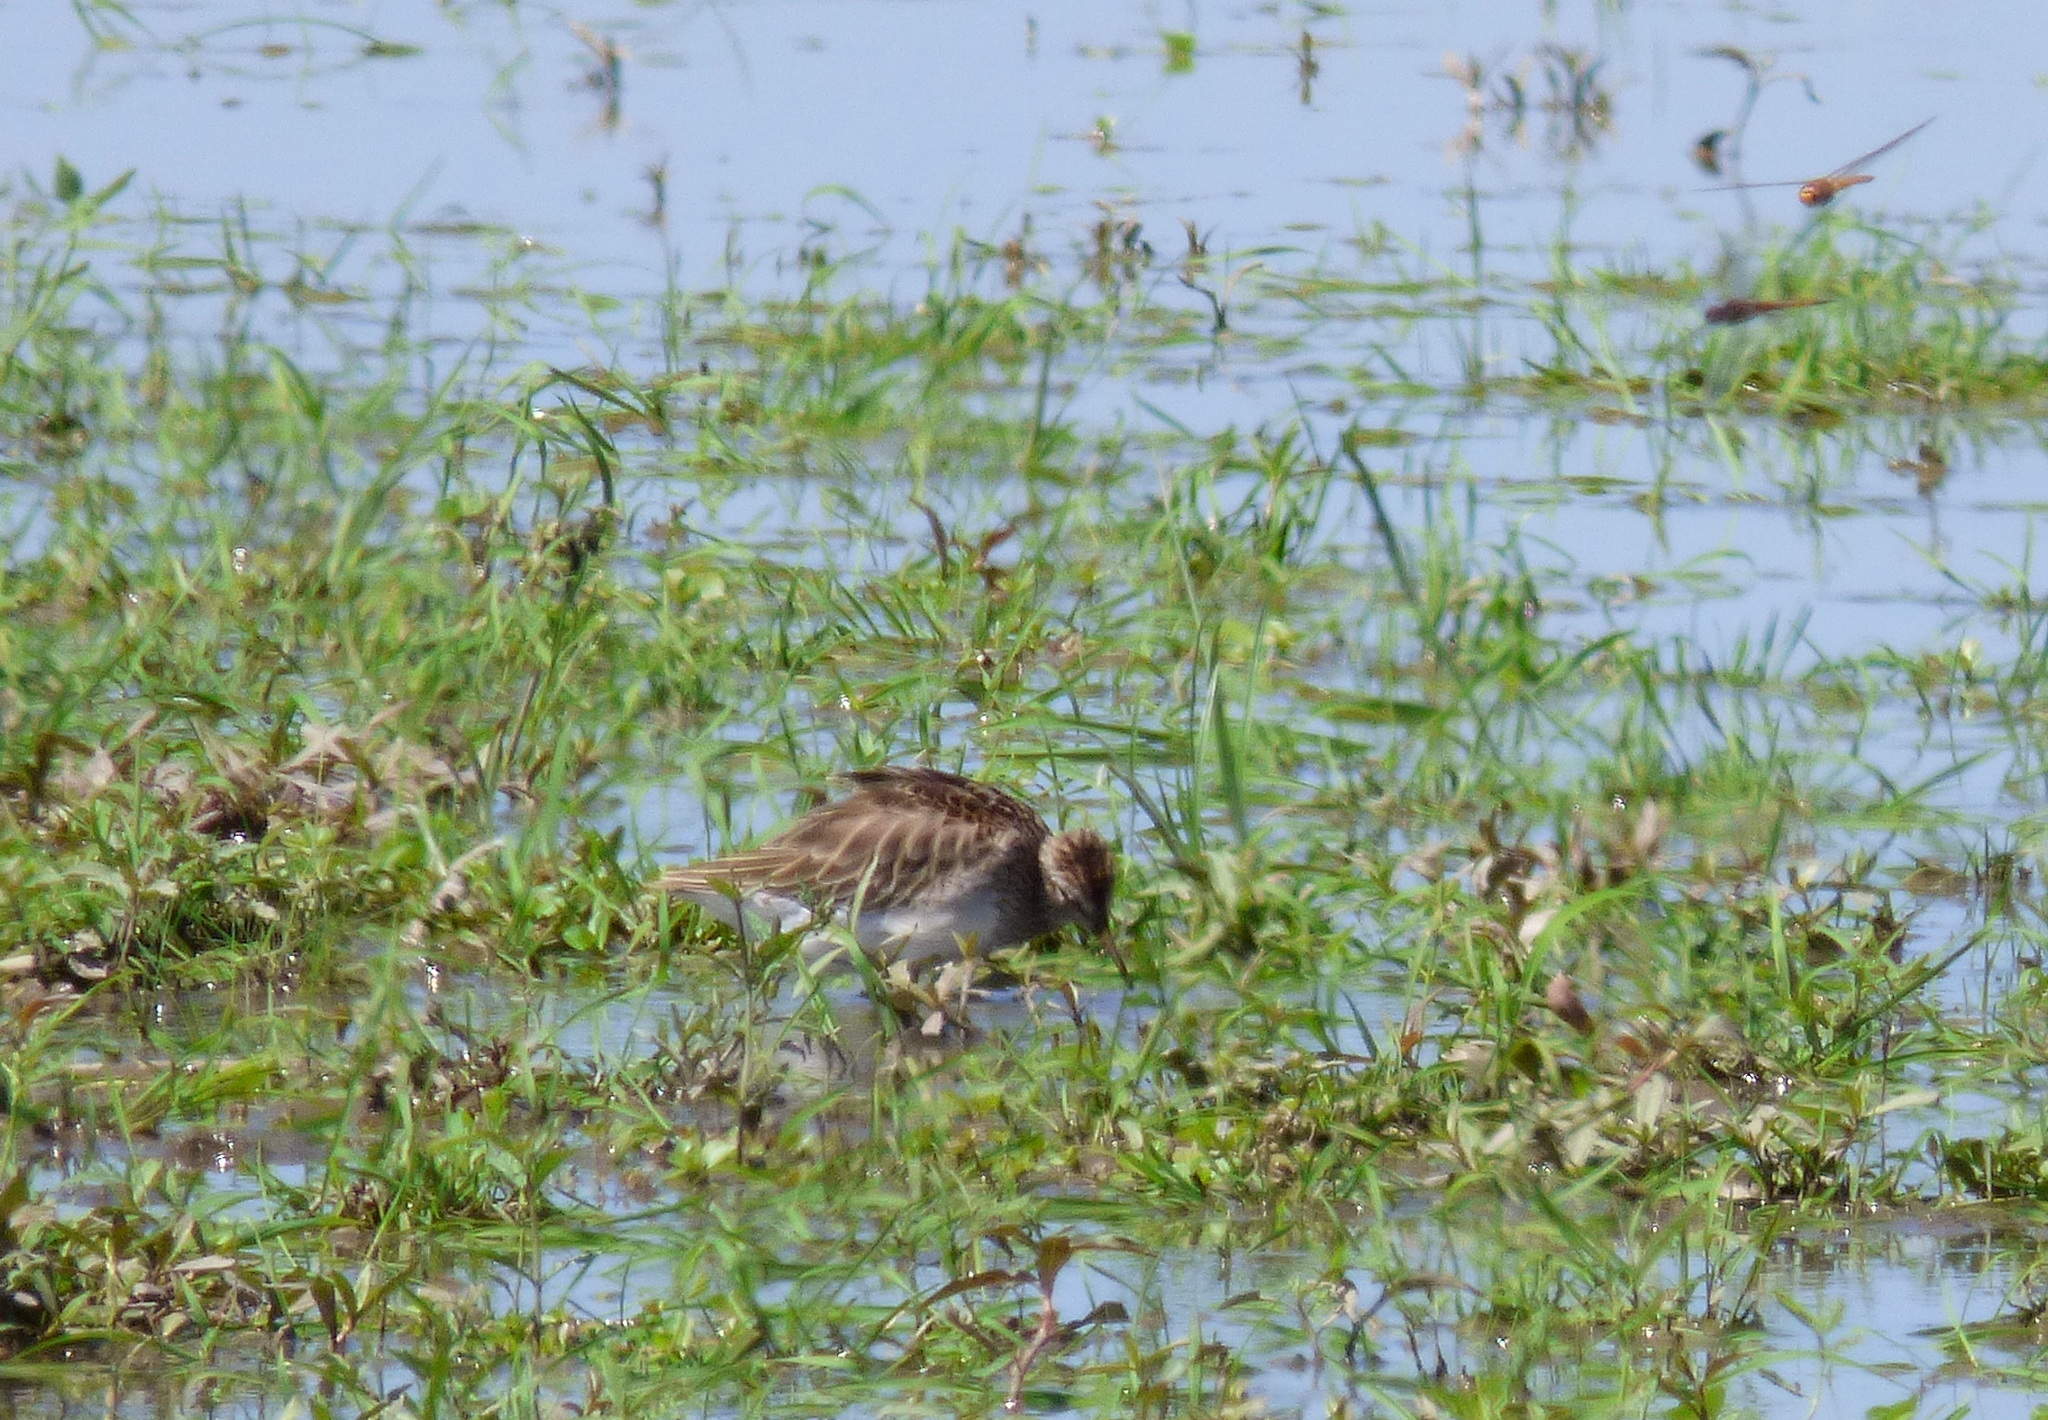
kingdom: Animalia
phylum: Chordata
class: Aves
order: Charadriiformes
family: Scolopacidae
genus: Calidris
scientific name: Calidris melanotos
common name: Pectoral sandpiper
